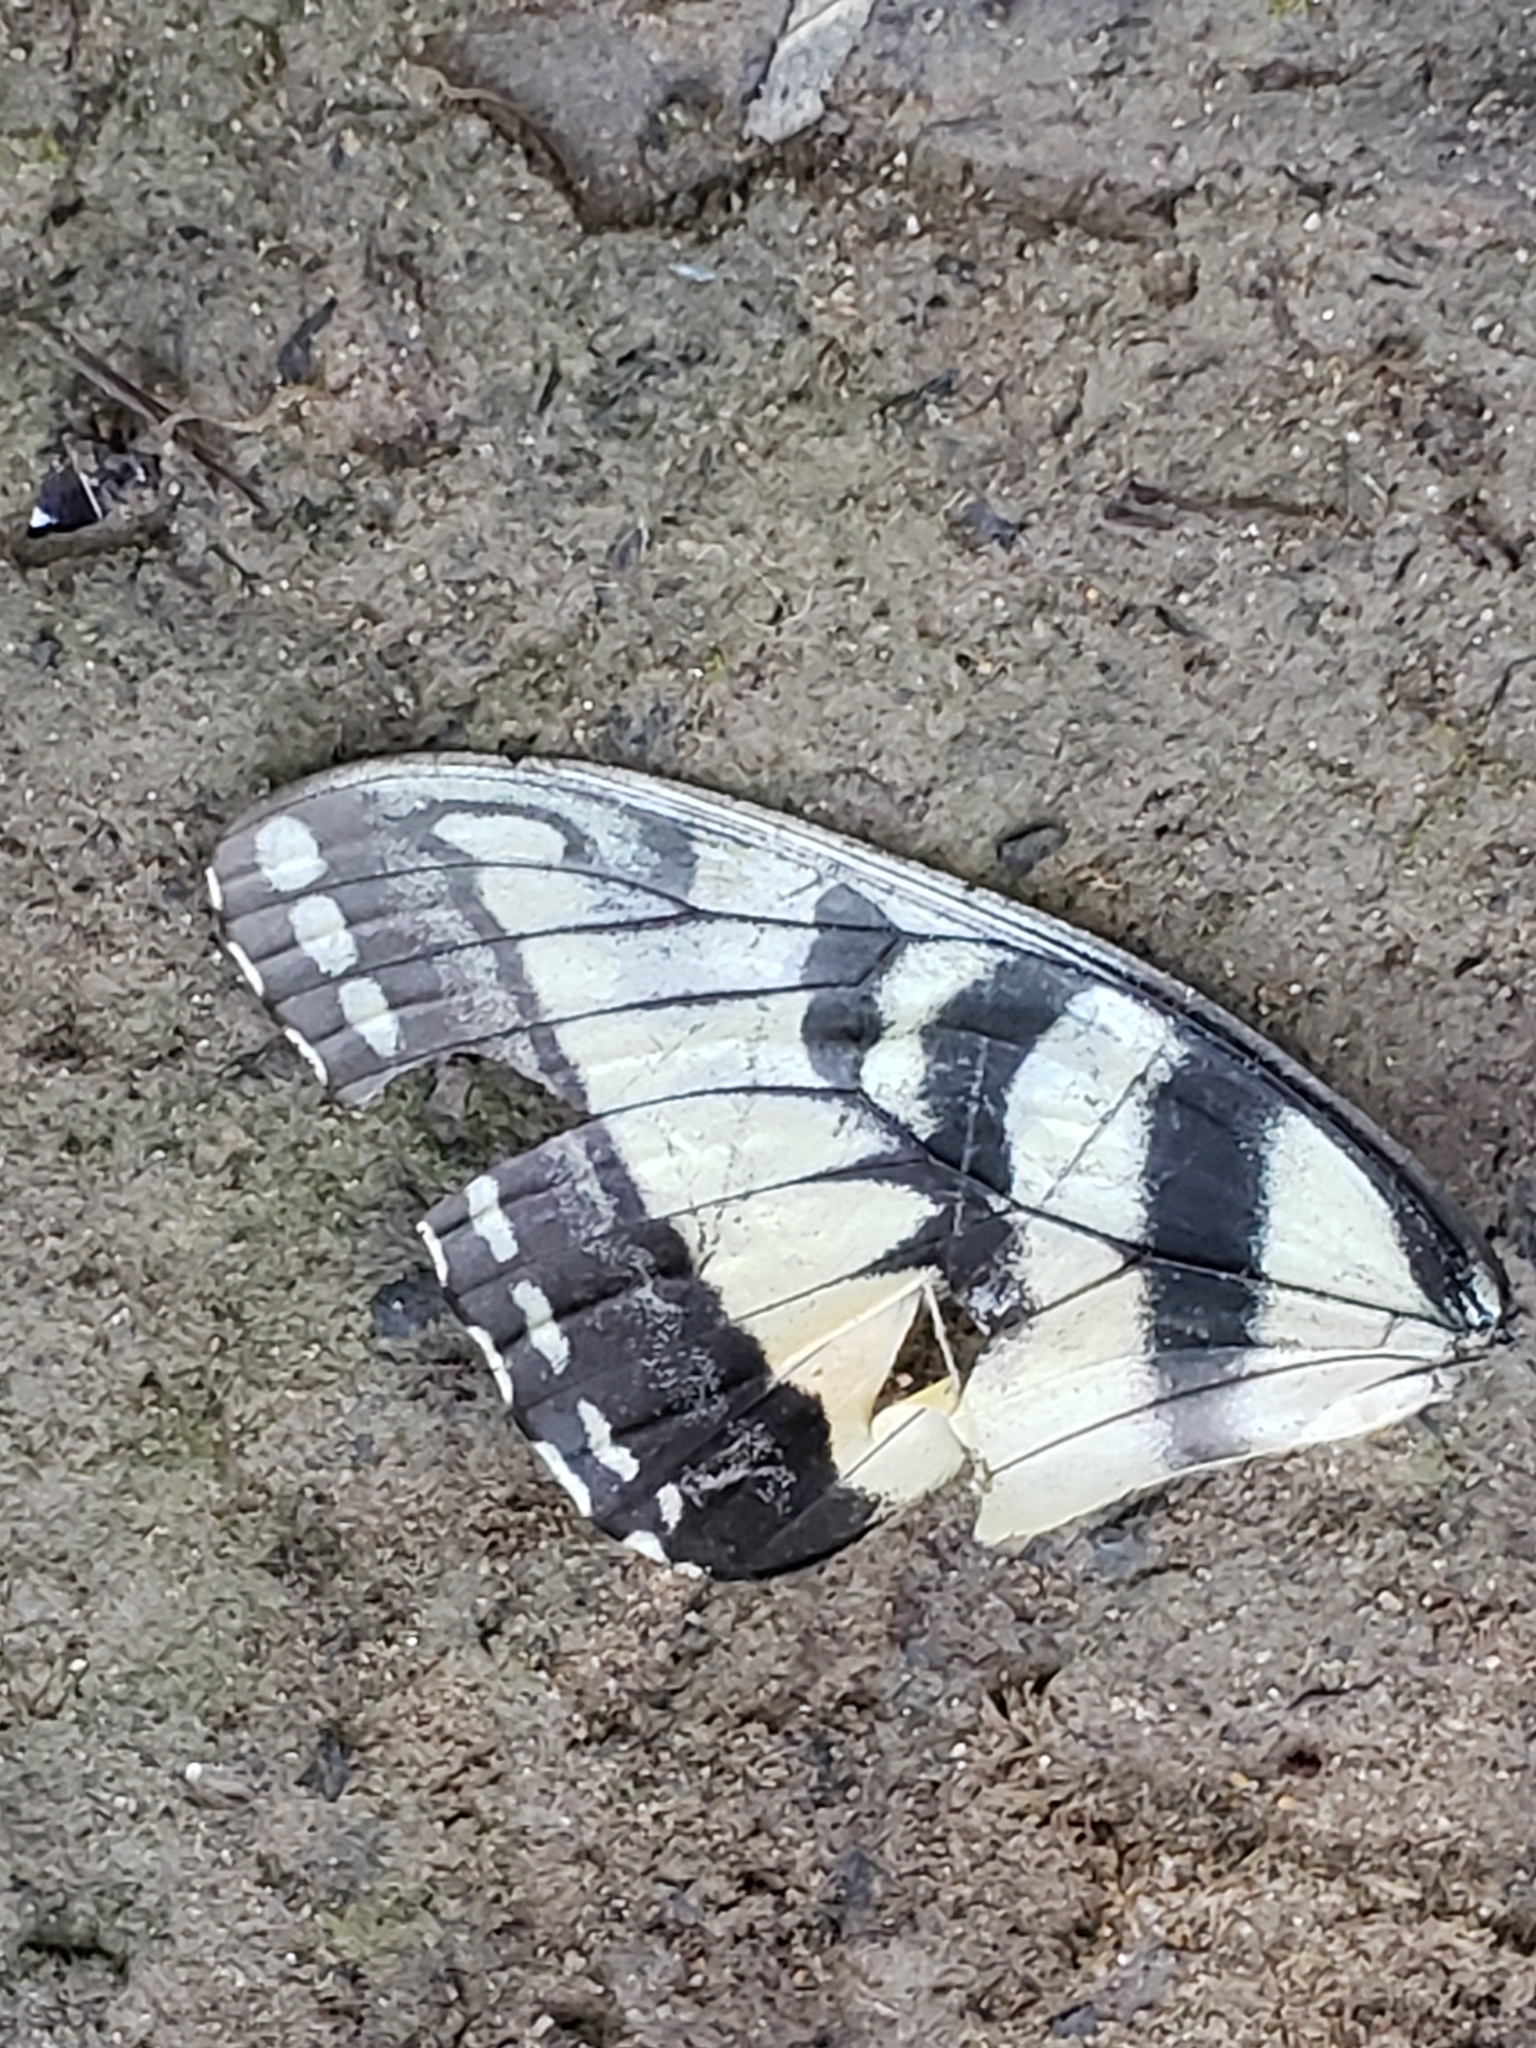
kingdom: Animalia
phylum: Arthropoda
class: Insecta
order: Lepidoptera
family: Papilionidae
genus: Papilio
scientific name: Papilio glaucus
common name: Tiger swallowtail
